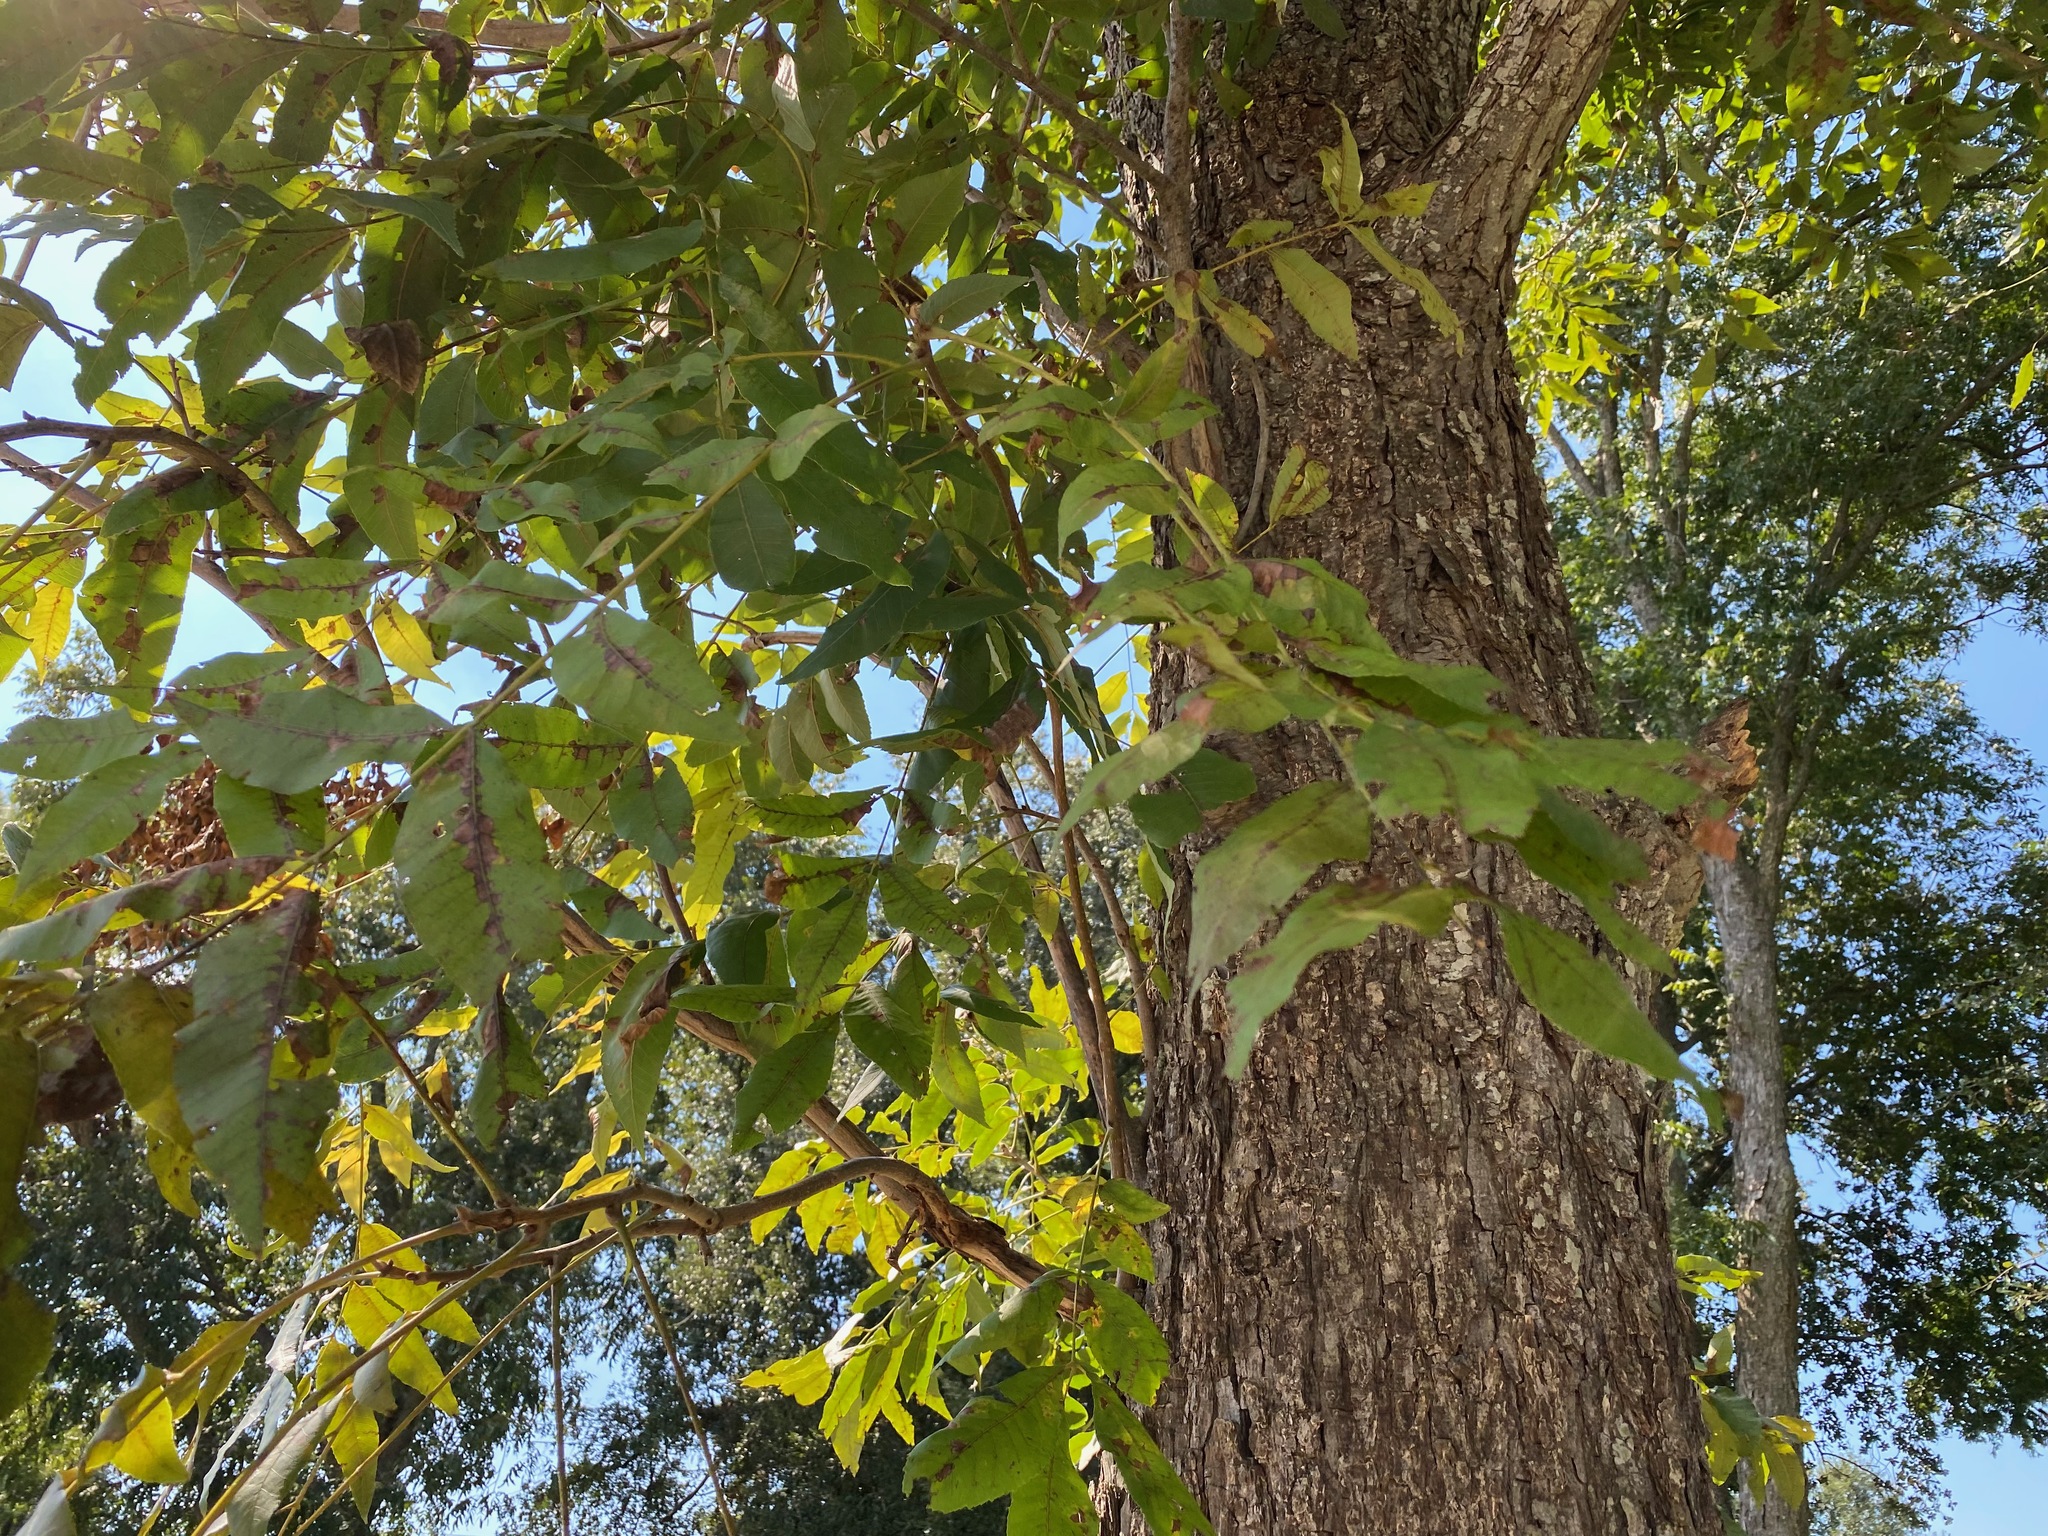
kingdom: Plantae
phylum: Tracheophyta
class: Magnoliopsida
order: Fagales
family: Juglandaceae
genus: Carya
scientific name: Carya illinoinensis
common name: Pecan
